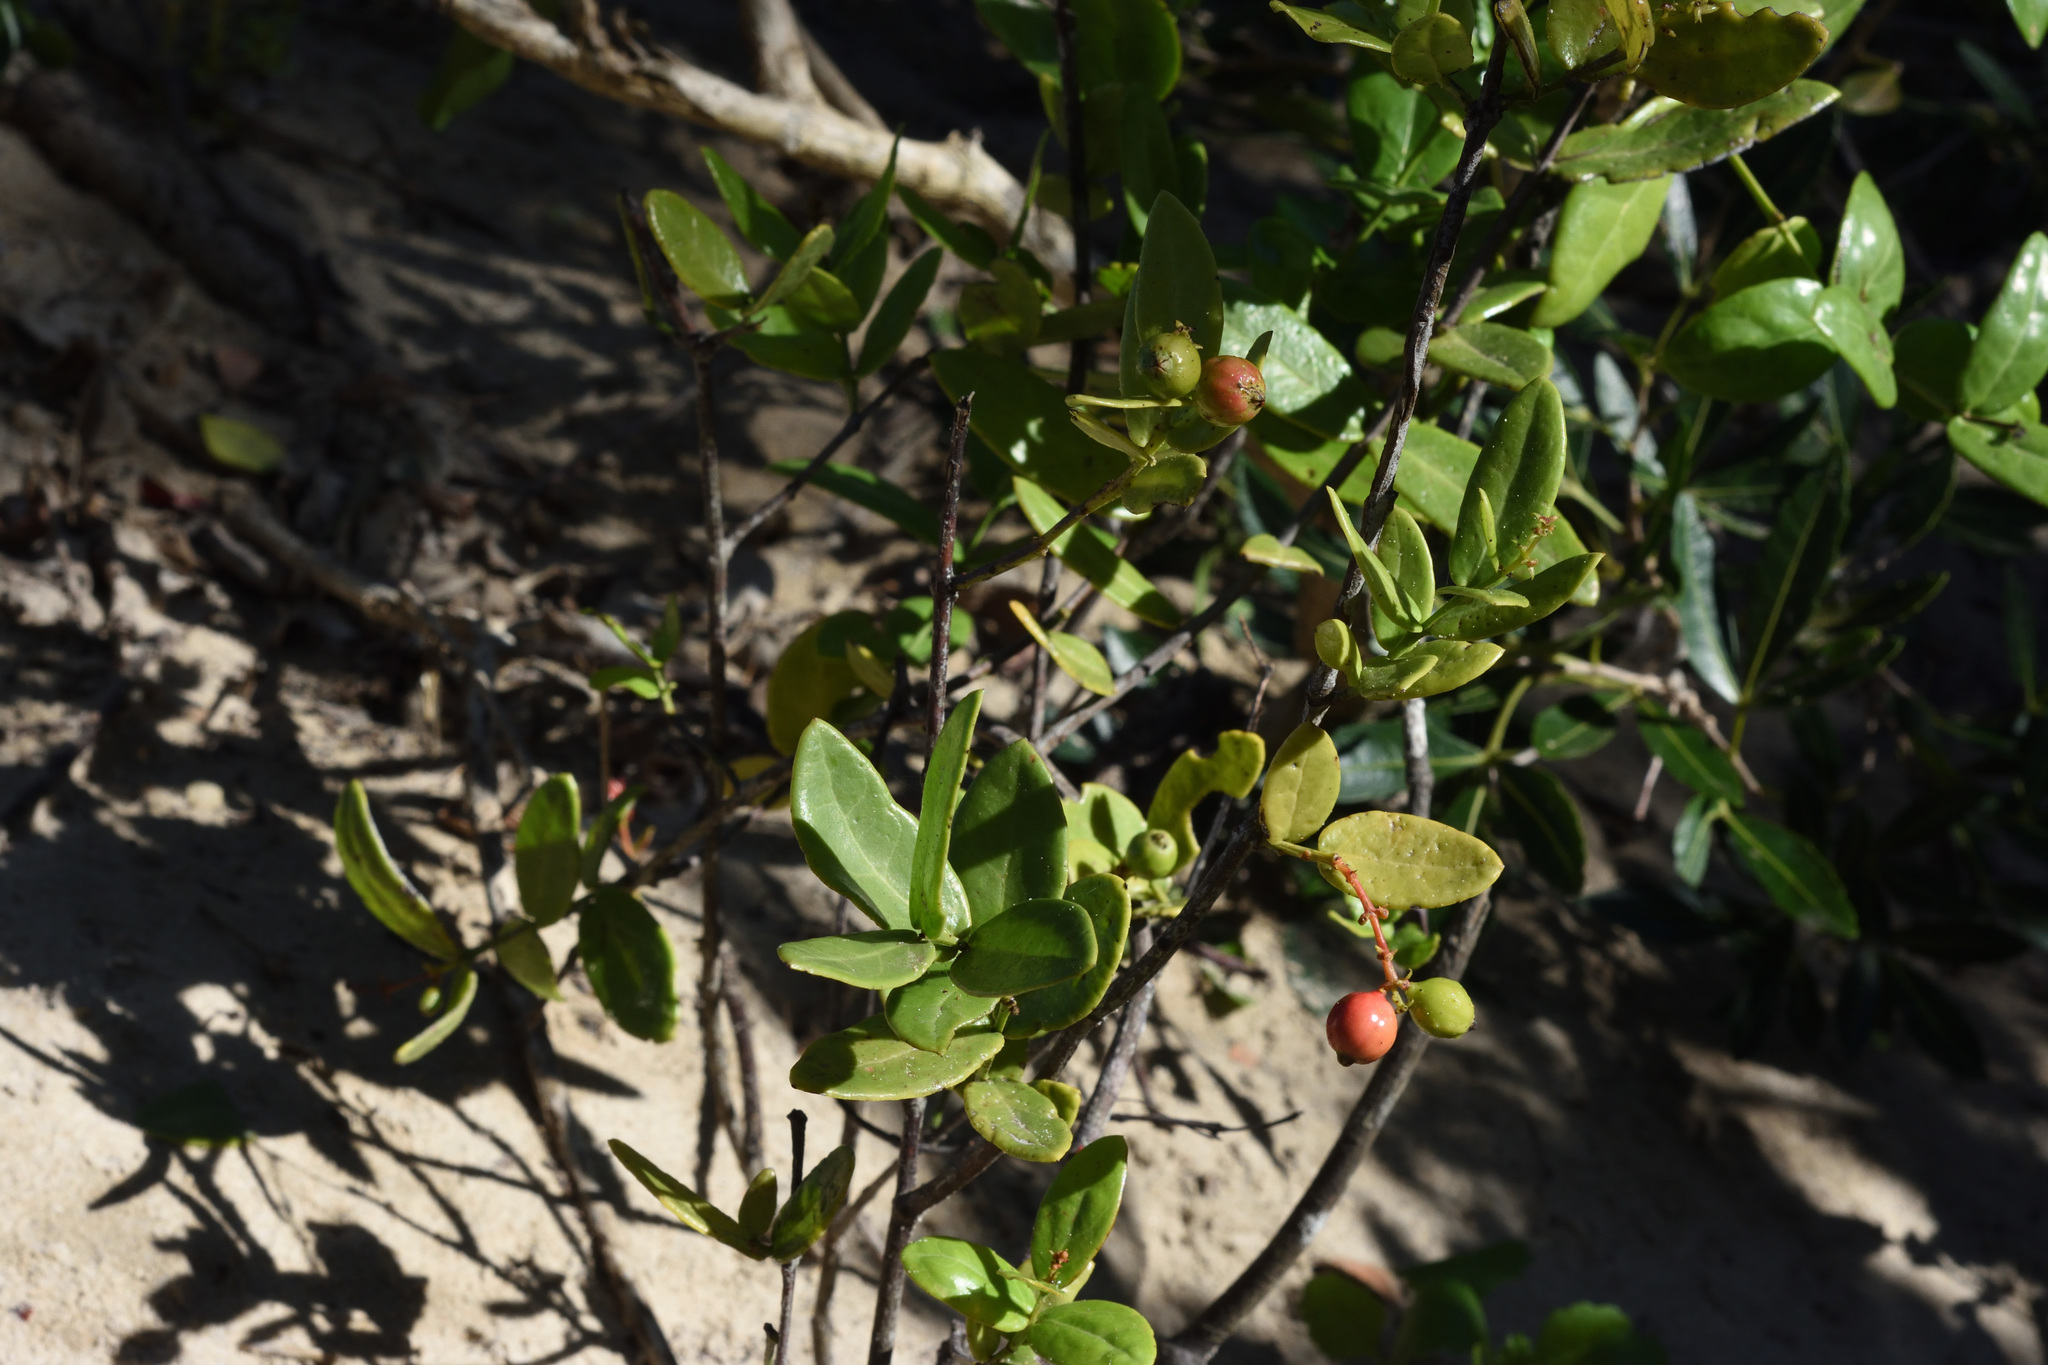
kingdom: Plantae
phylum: Tracheophyta
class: Magnoliopsida
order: Santalales
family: Santalaceae
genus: Rhoiacarpos
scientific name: Rhoiacarpos capensis
